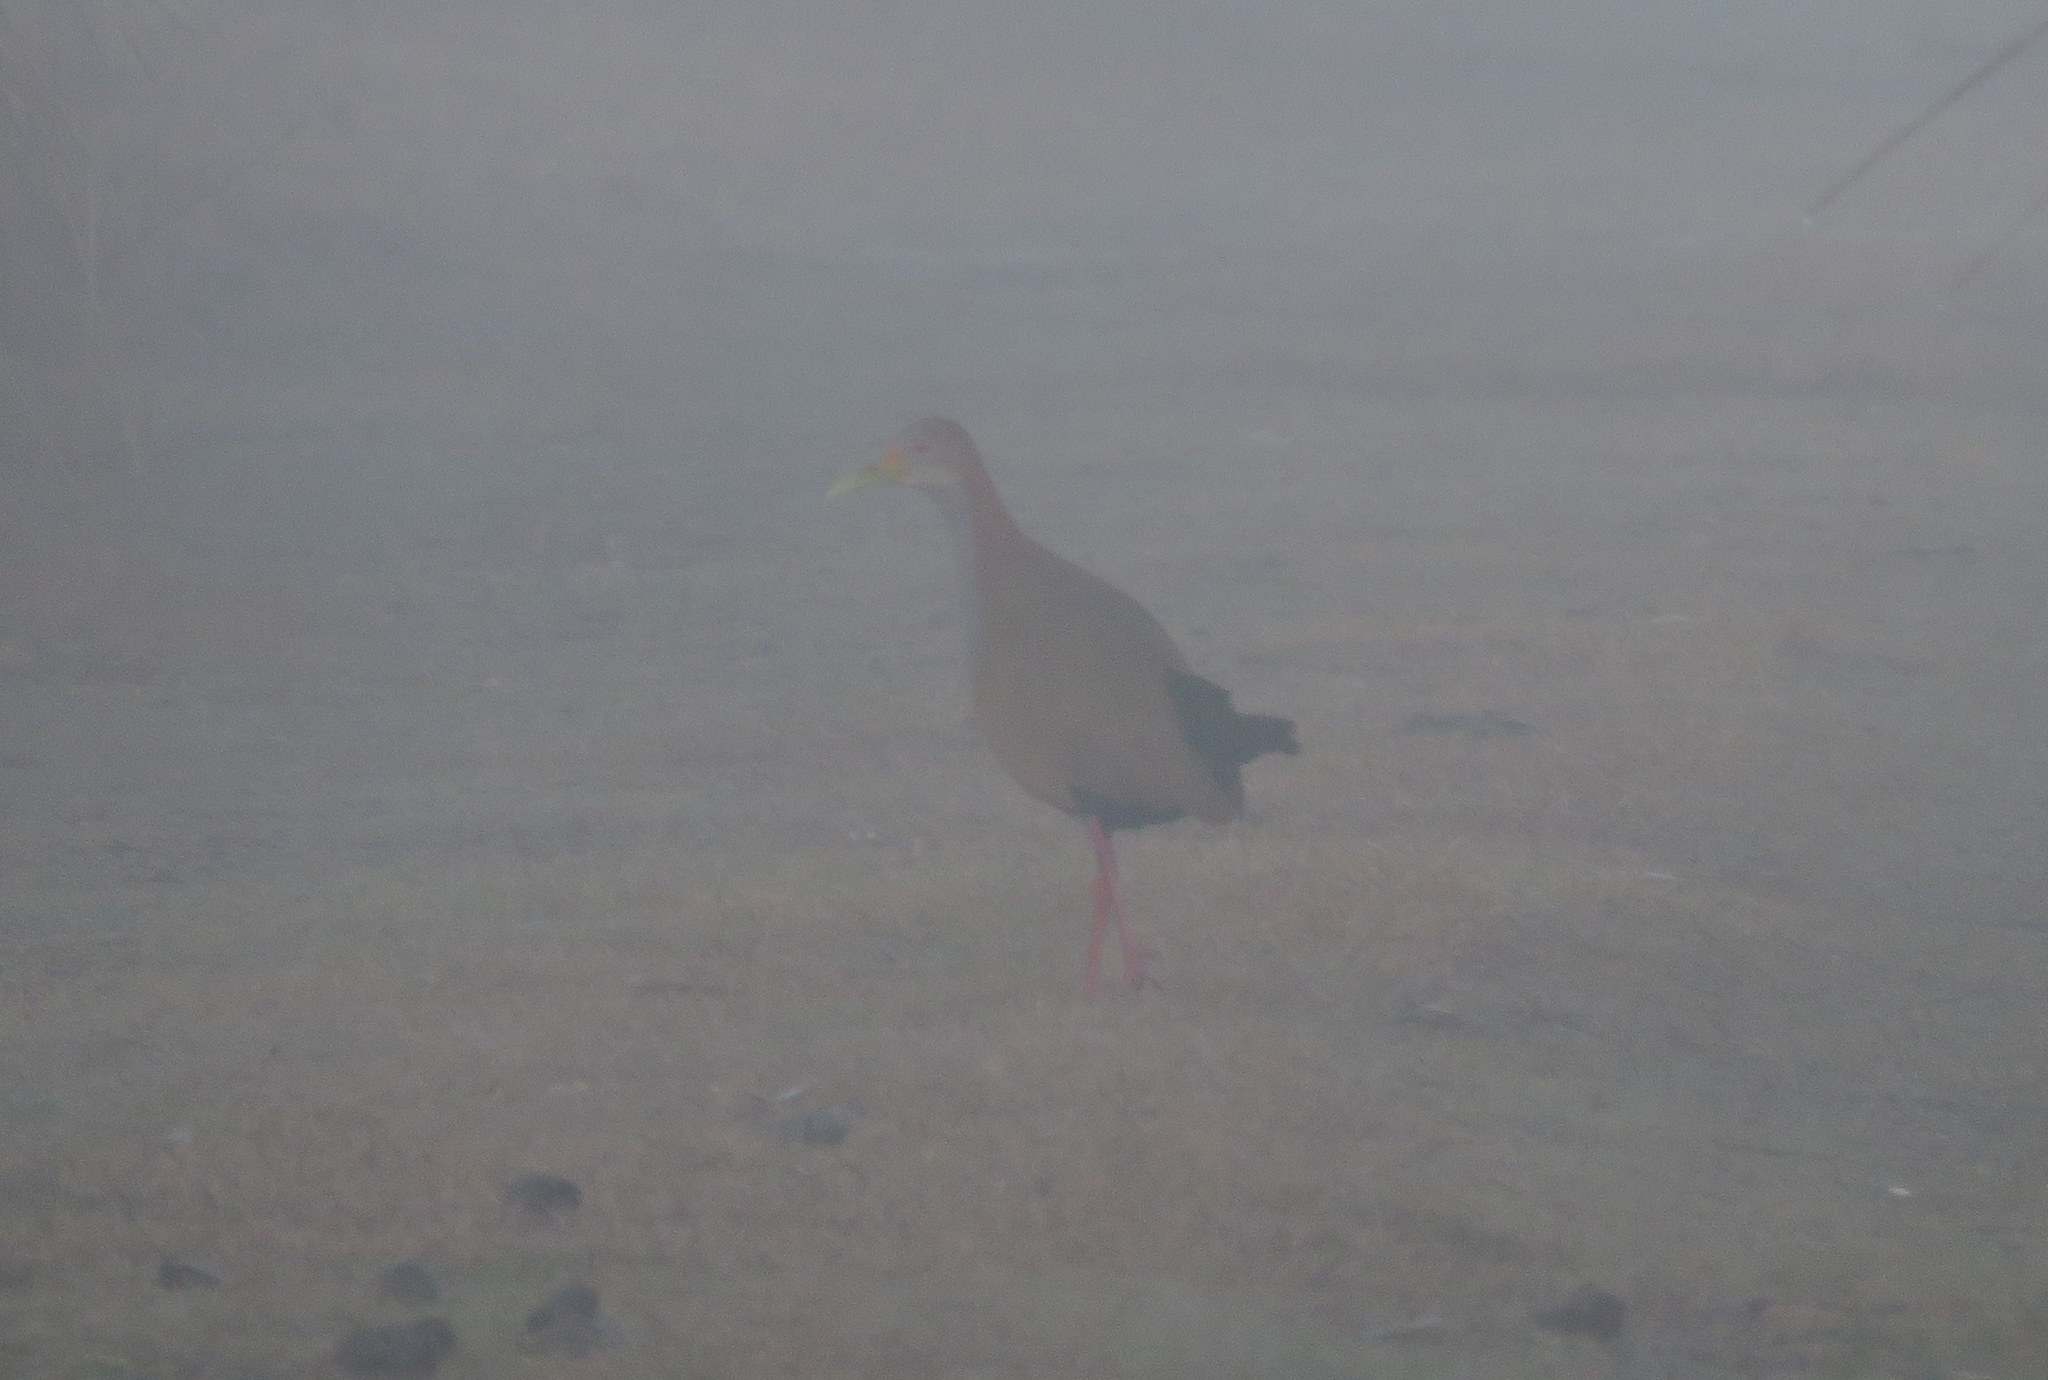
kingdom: Animalia
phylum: Chordata
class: Aves
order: Gruiformes
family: Rallidae
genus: Aramides
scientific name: Aramides ypecaha
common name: Giant wood rail
